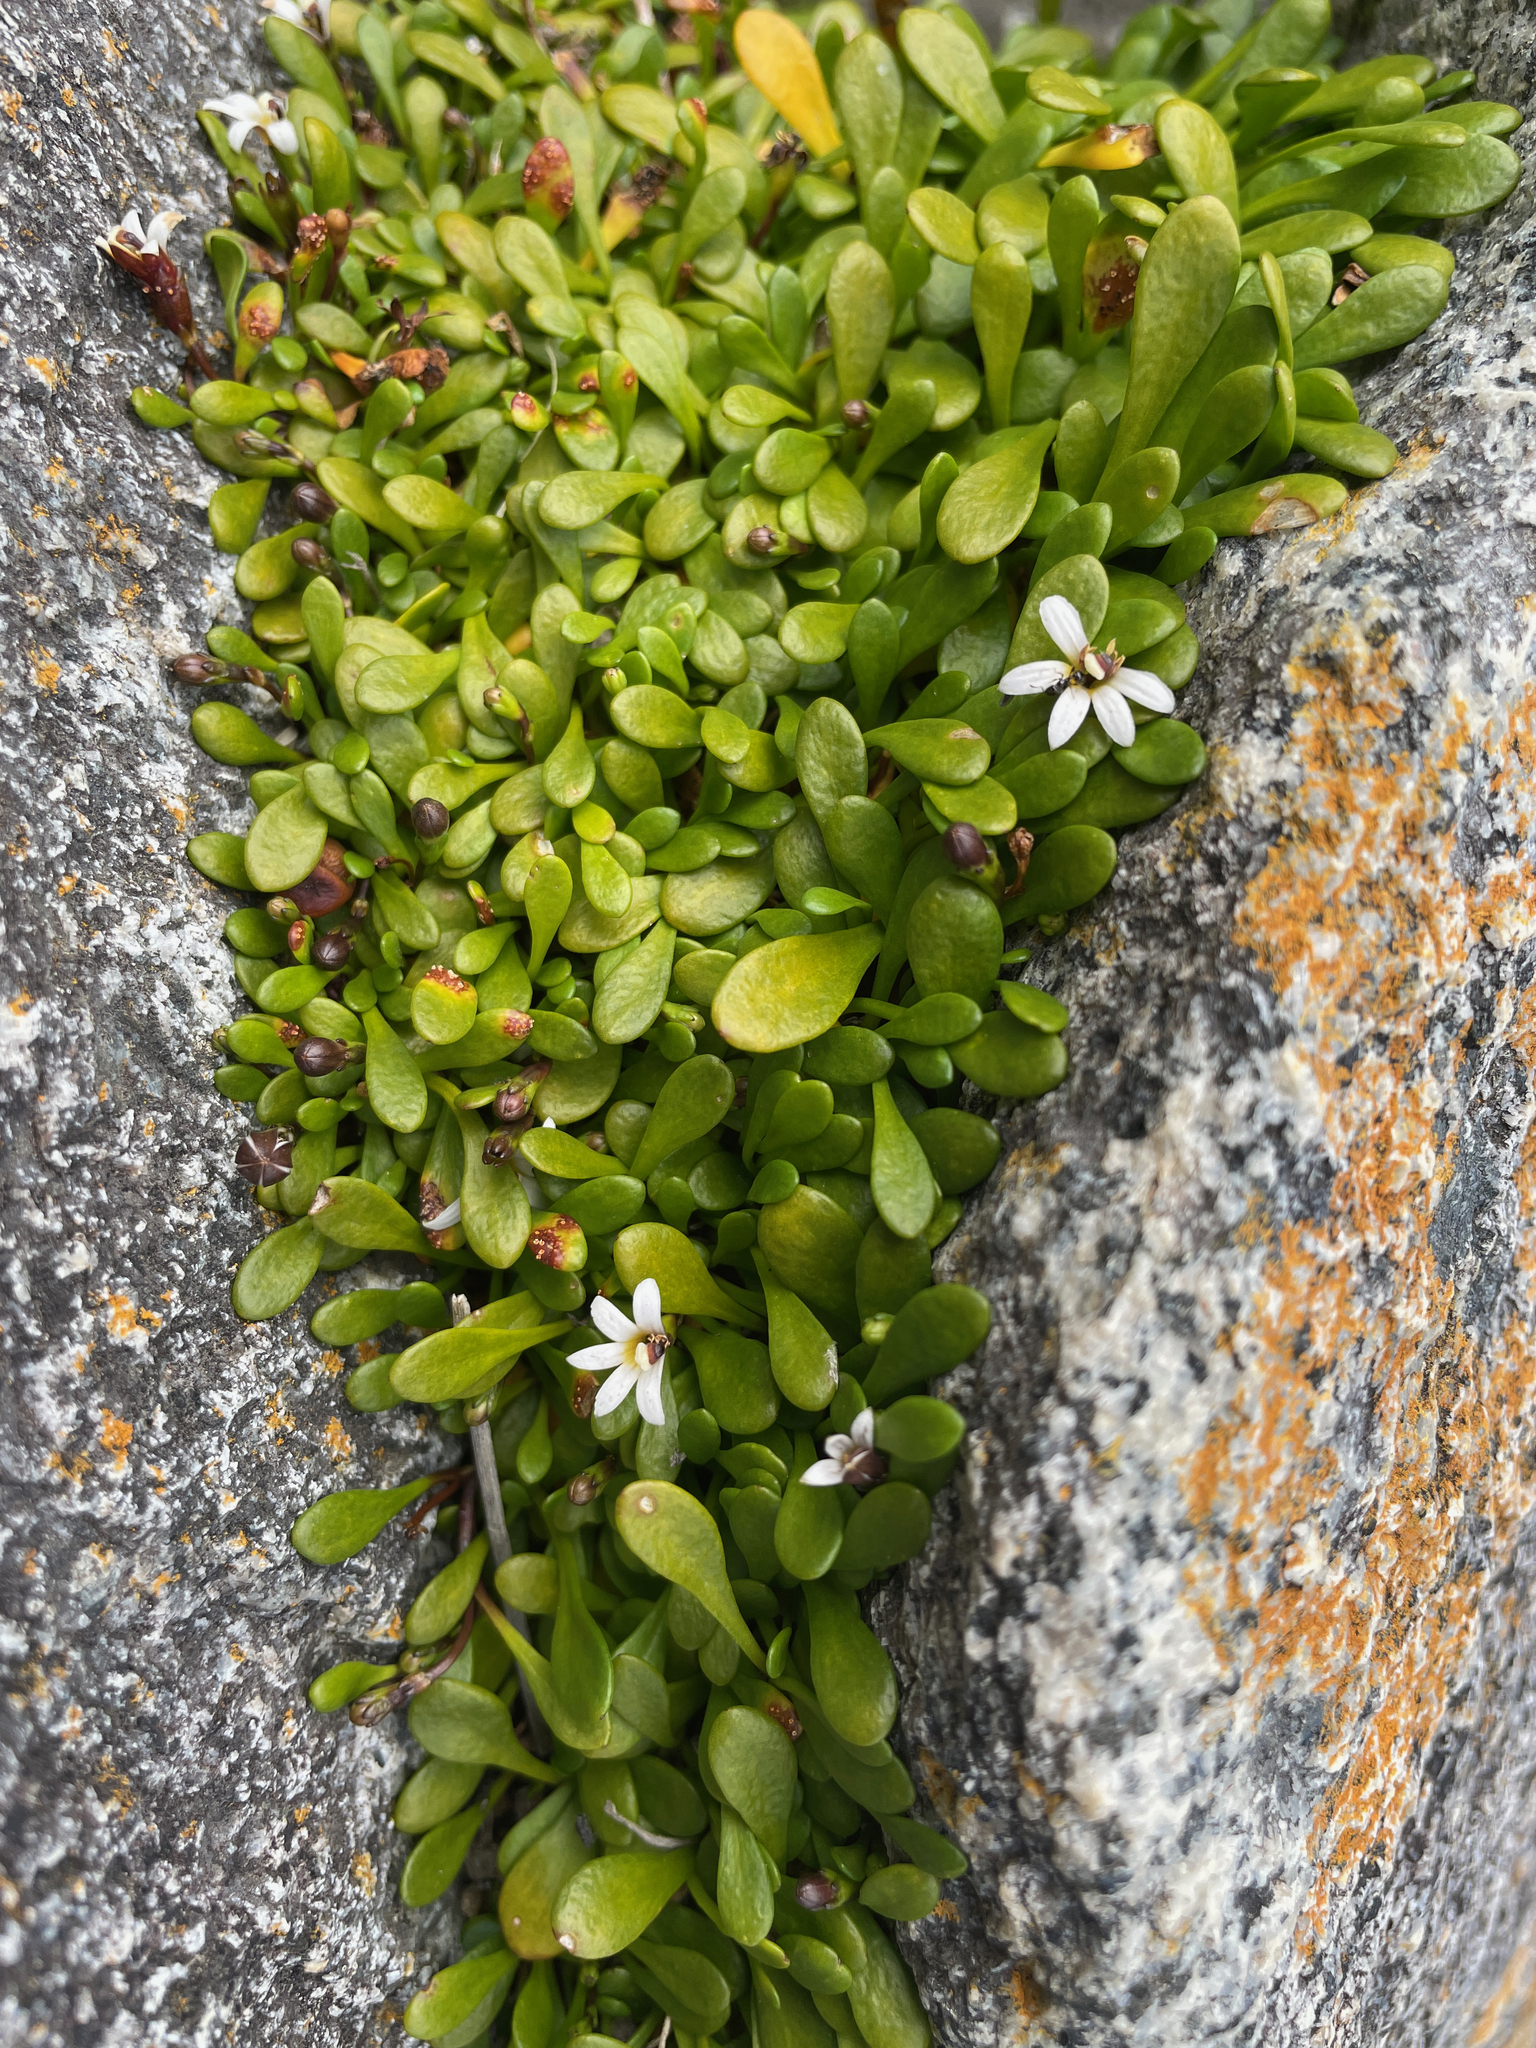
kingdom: Plantae
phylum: Tracheophyta
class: Magnoliopsida
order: Asterales
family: Goodeniaceae
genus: Goodenia
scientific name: Goodenia radicans
